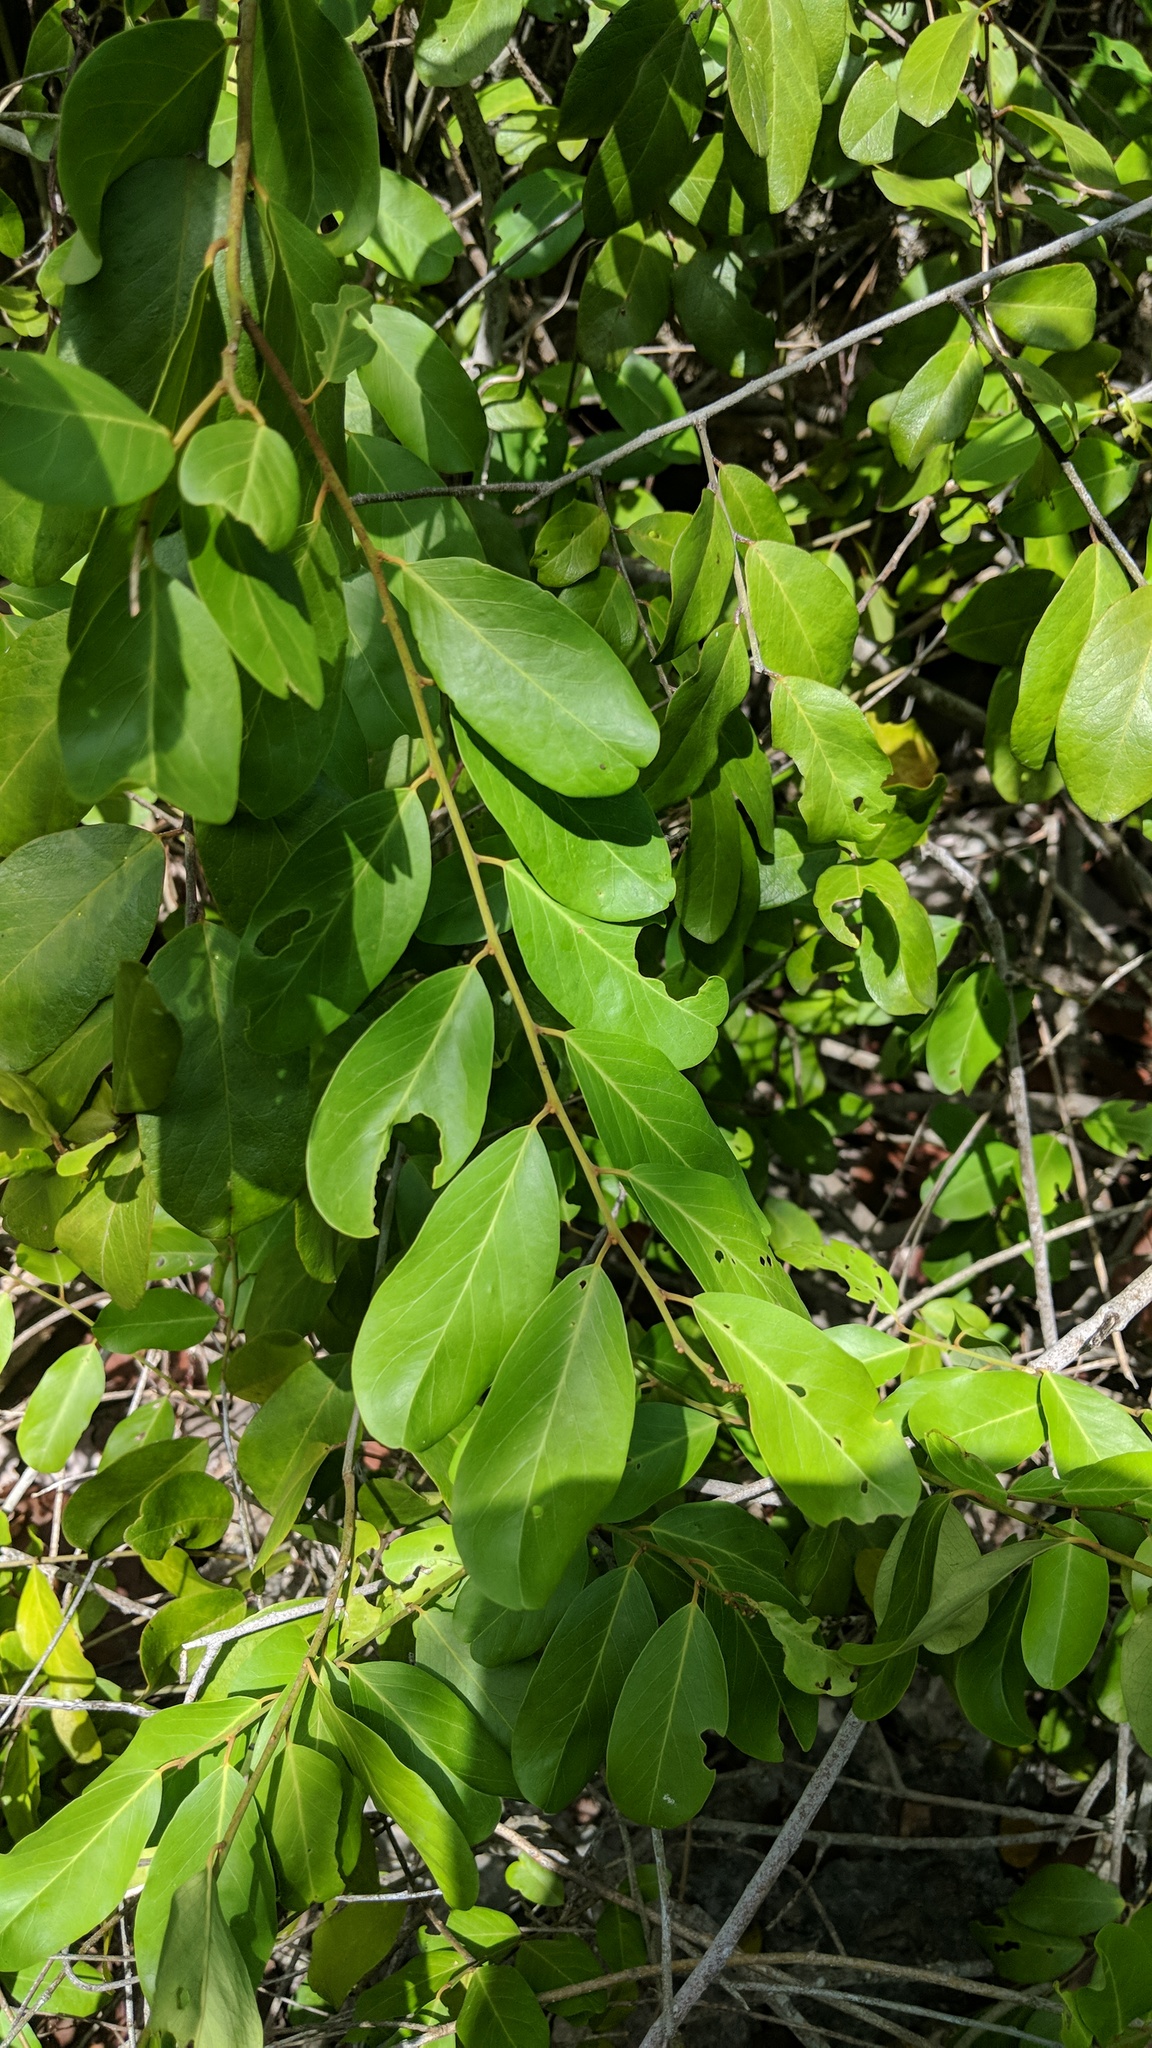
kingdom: Plantae
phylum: Tracheophyta
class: Magnoliopsida
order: Brassicales
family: Capparaceae
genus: Cynophalla
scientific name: Cynophalla flexuosa
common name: Capertree
